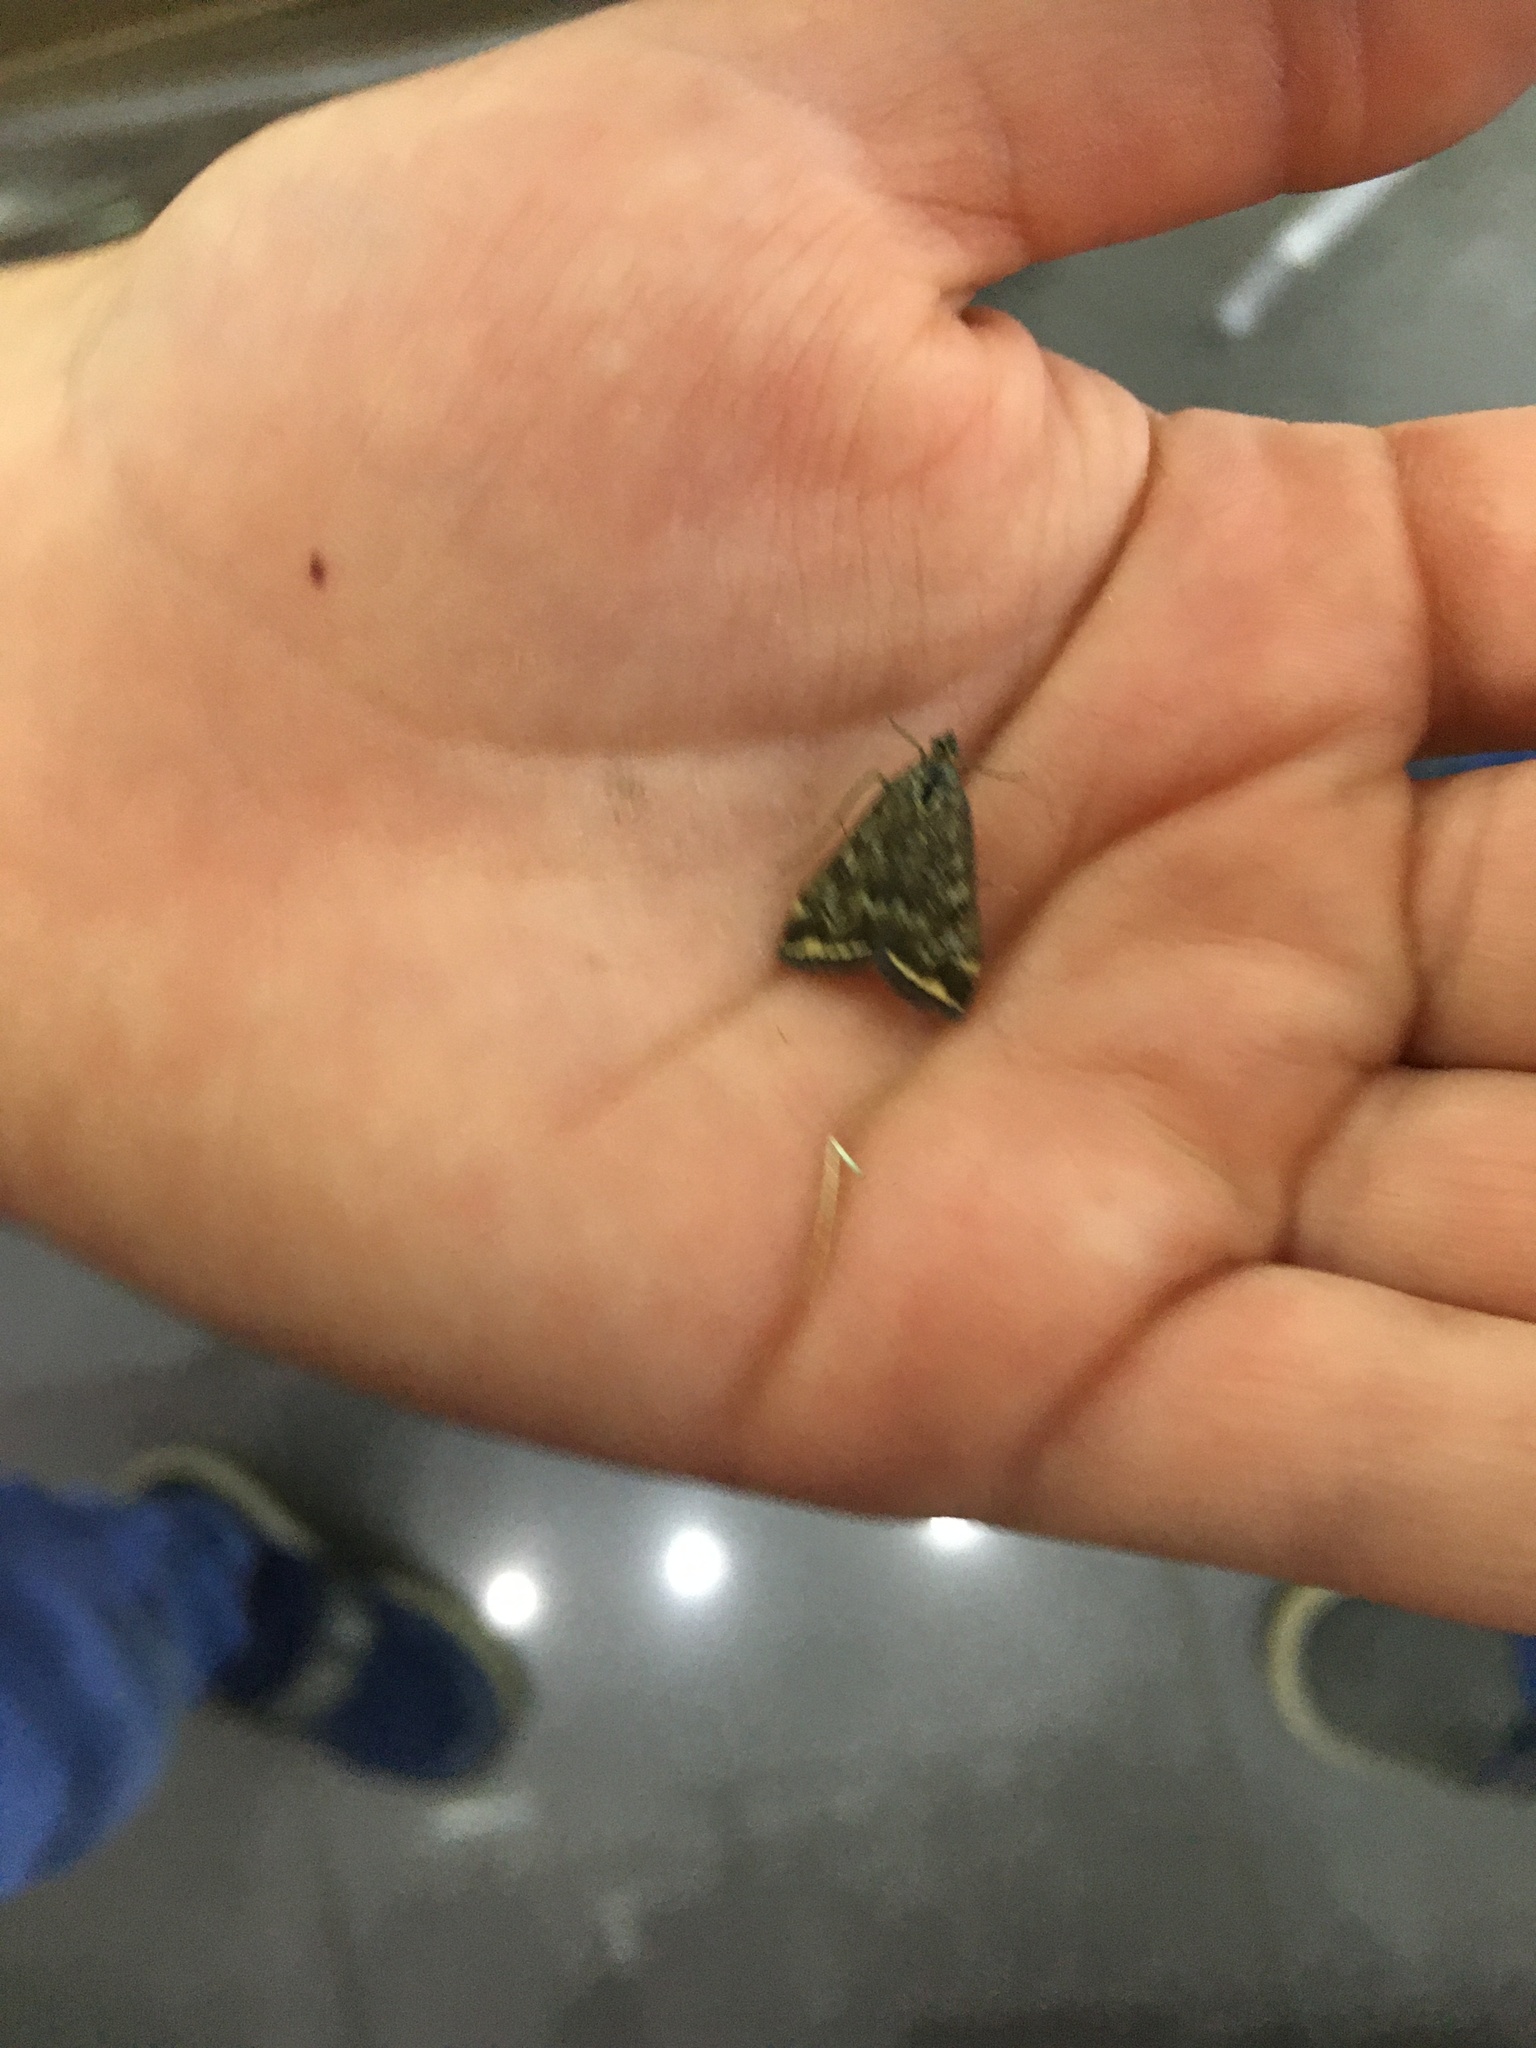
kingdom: Animalia
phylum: Arthropoda
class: Insecta
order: Lepidoptera
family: Crambidae
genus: Loxostege
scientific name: Loxostege sticticalis
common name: Crambid moth
